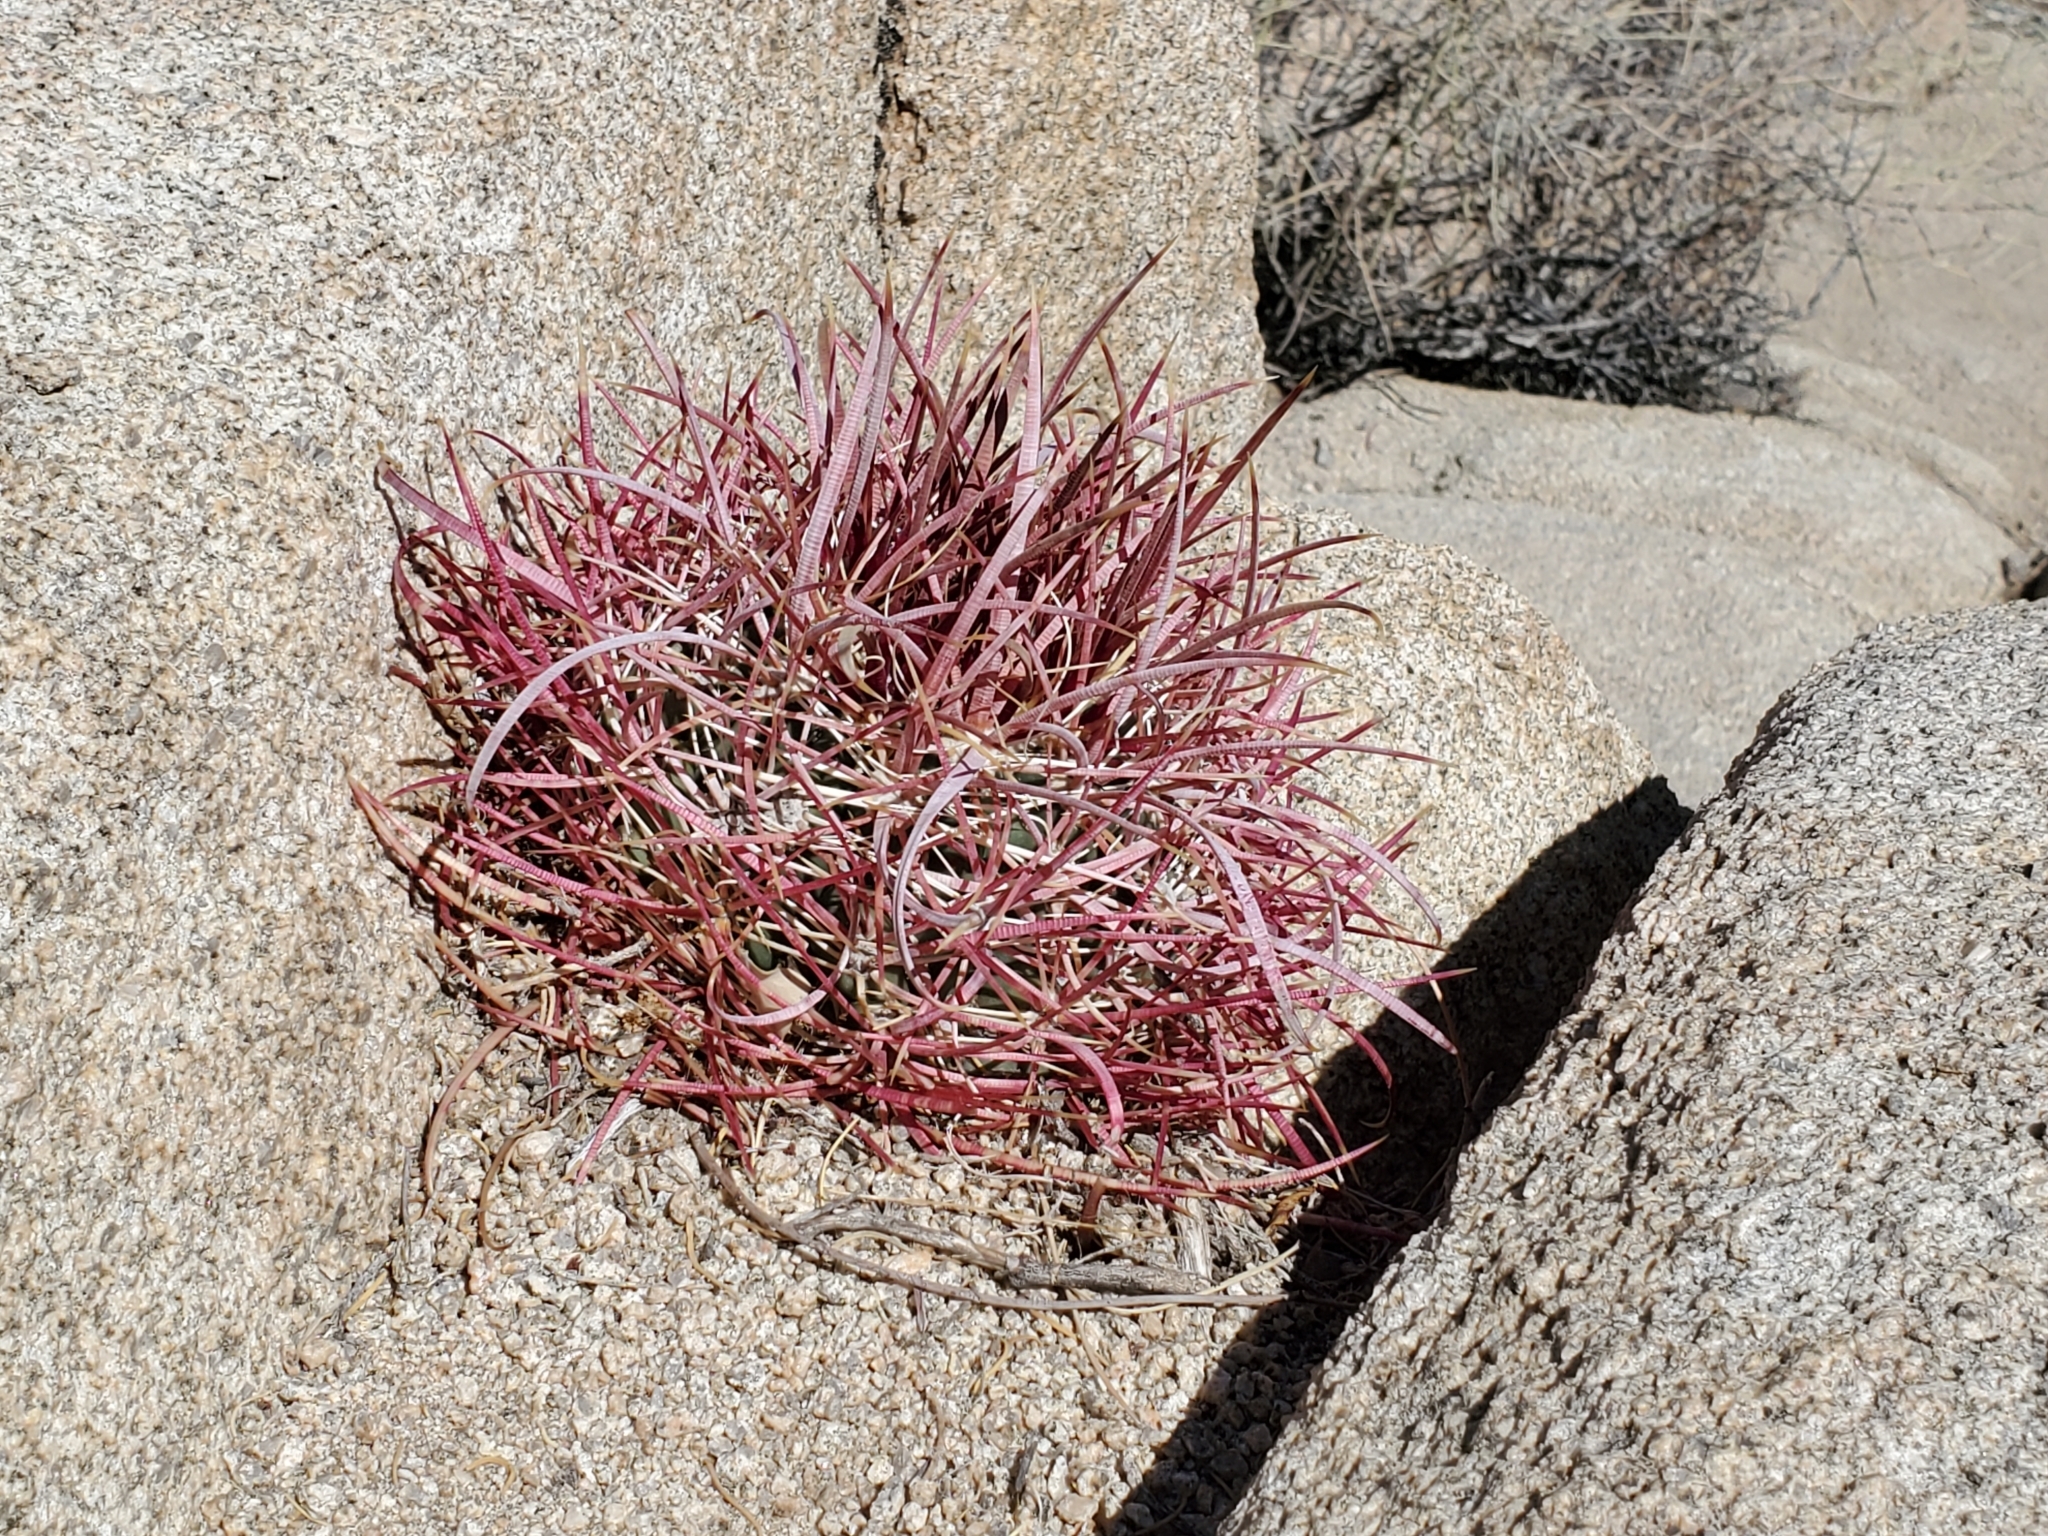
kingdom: Plantae
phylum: Tracheophyta
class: Magnoliopsida
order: Caryophyllales
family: Cactaceae
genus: Ferocactus
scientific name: Ferocactus cylindraceus
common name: California barrel cactus
